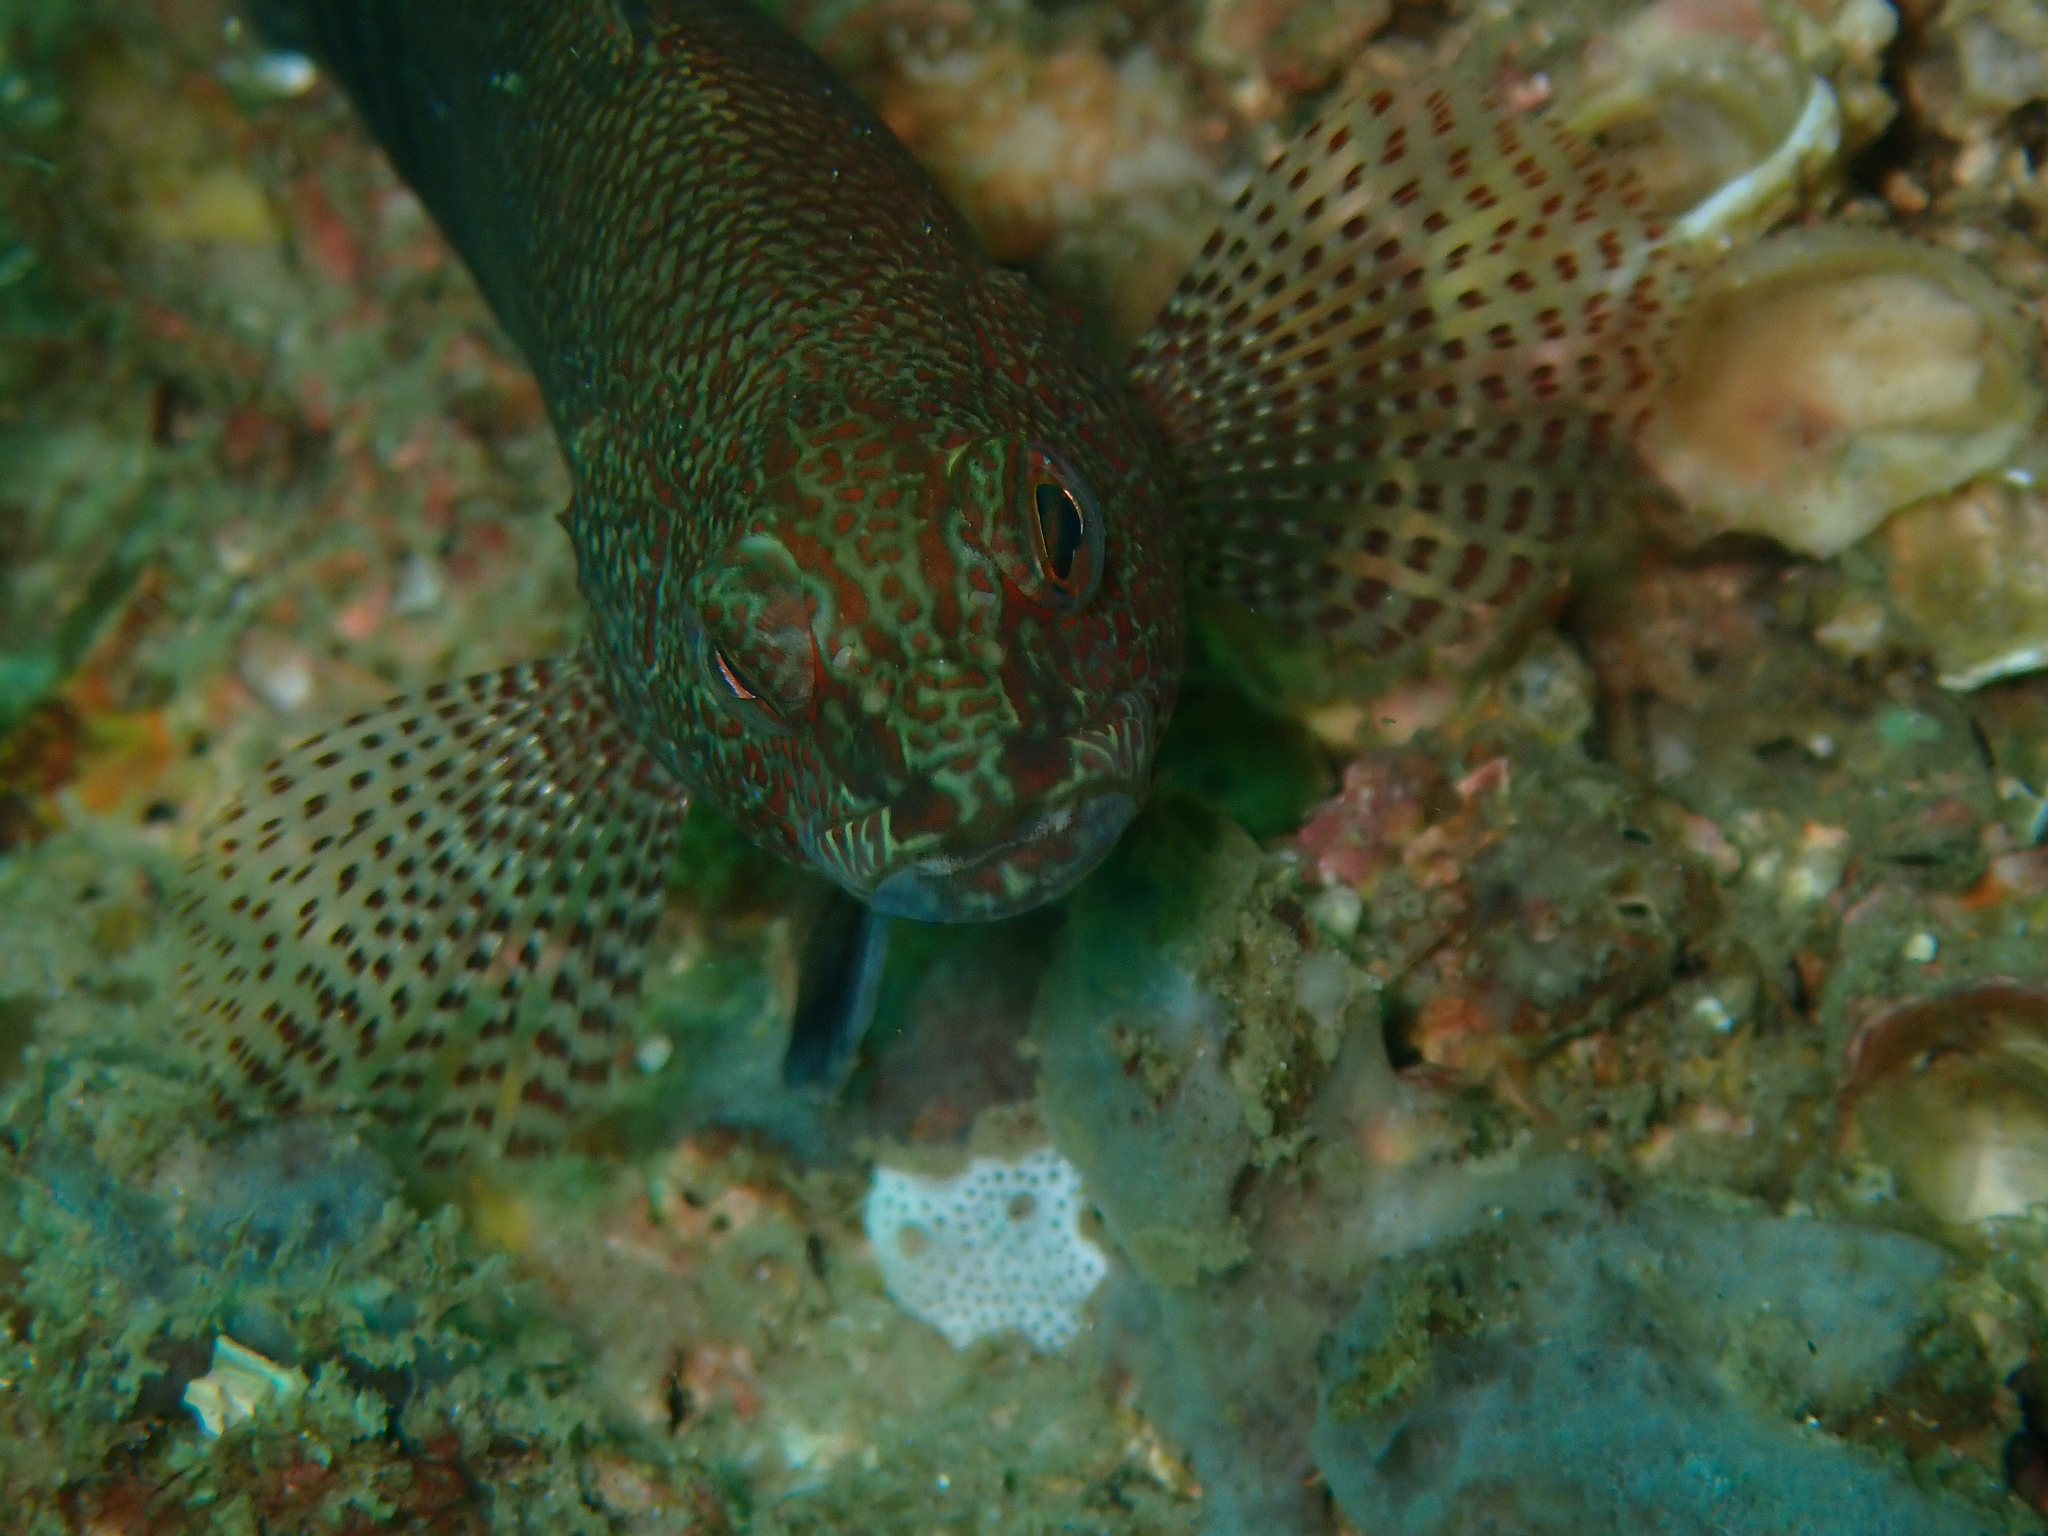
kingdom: Animalia
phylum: Chordata
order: Perciformes
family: Serranidae
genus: Serranus
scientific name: Serranus subligarius
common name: Belted sandfish
